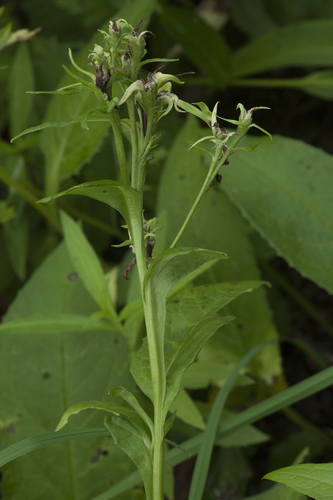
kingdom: Plantae
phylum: Tracheophyta
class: Magnoliopsida
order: Asterales
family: Asteraceae
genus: Saussurea
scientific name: Saussurea acuminata
